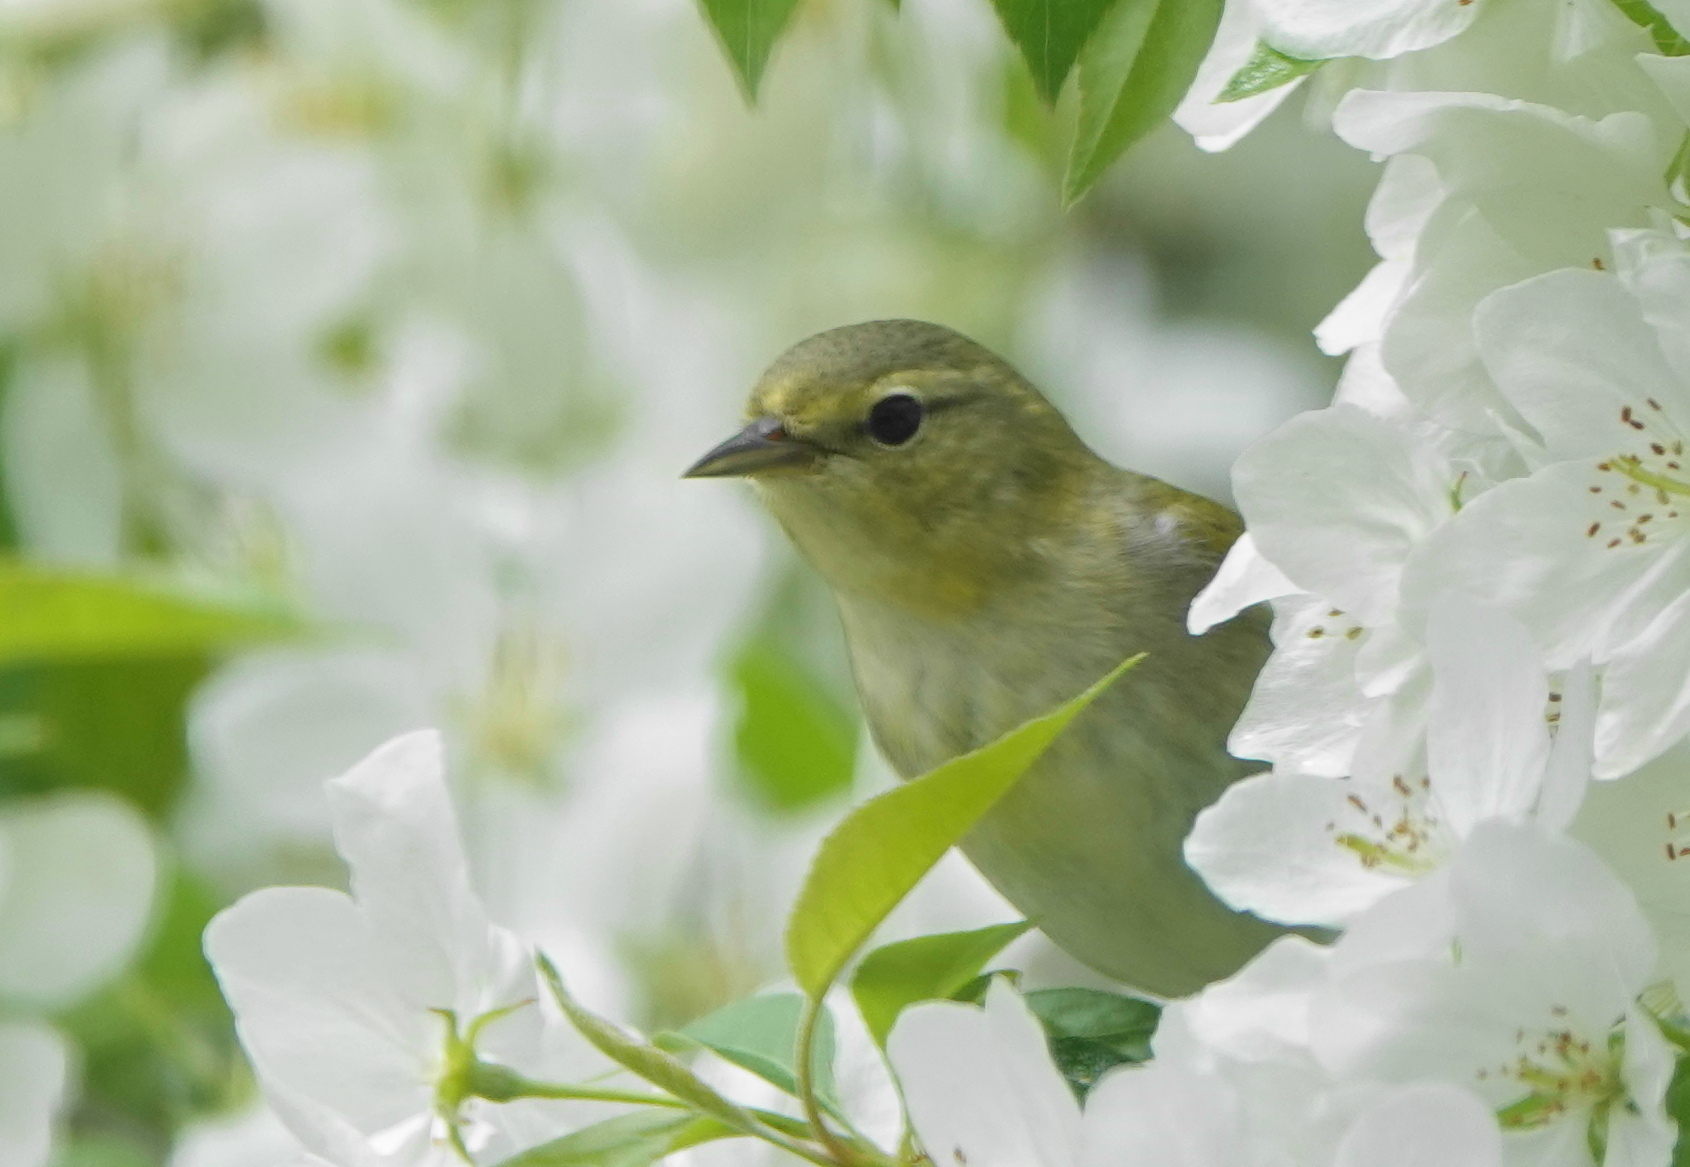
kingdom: Animalia
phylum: Chordata
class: Aves
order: Passeriformes
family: Parulidae
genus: Leiothlypis
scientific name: Leiothlypis peregrina
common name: Tennessee warbler
